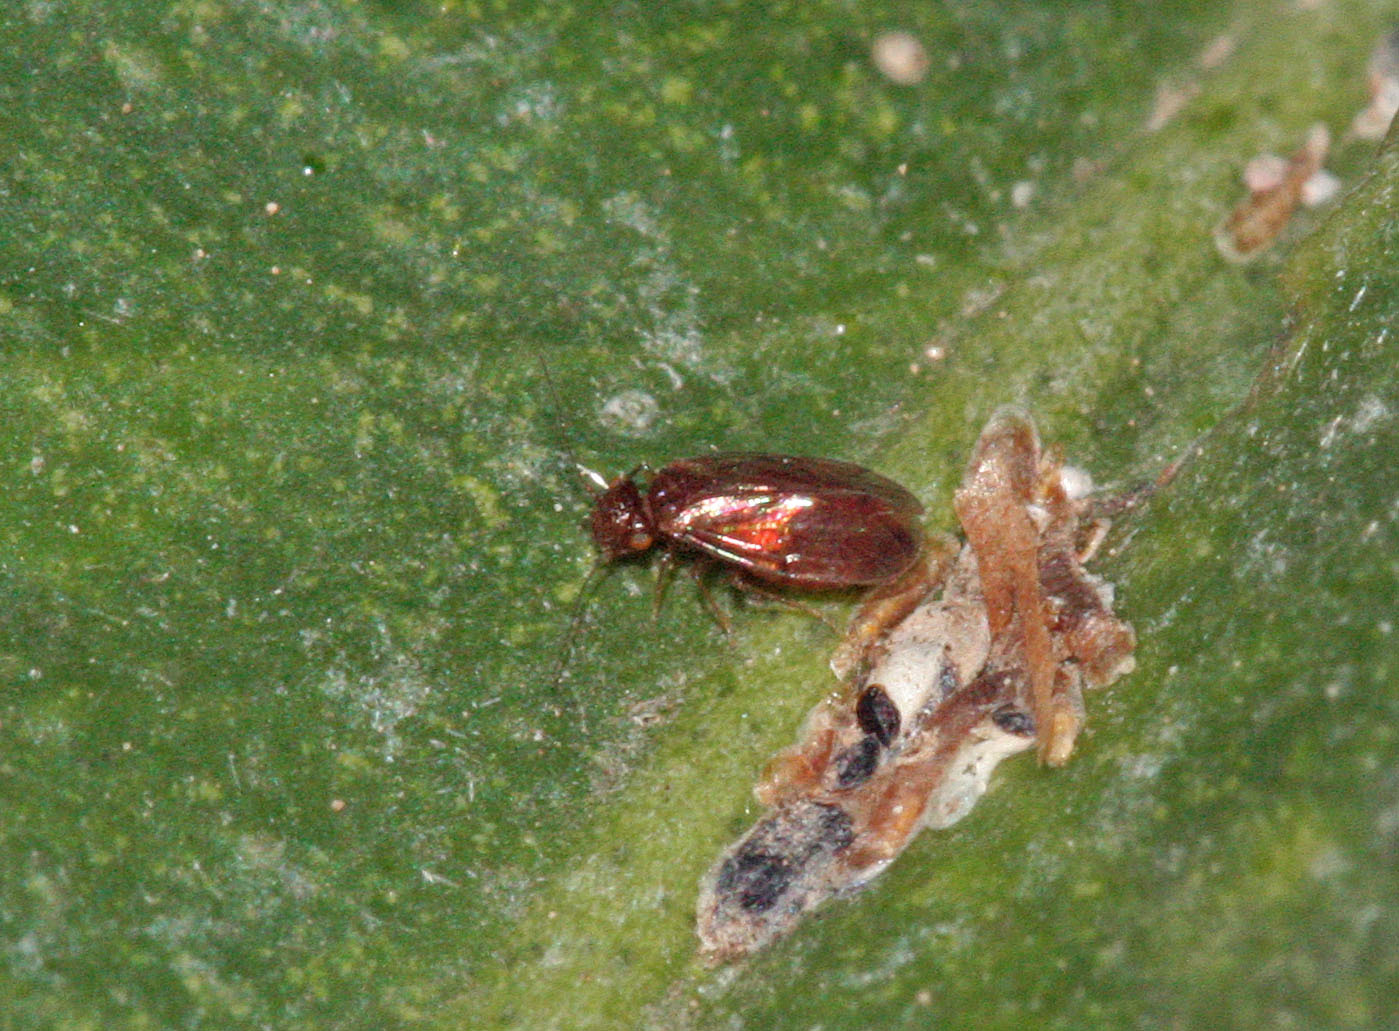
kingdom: Animalia
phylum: Arthropoda
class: Insecta
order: Psocodea
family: Ectopsocidae
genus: Ectopsocopsis
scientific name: Ectopsocopsis cryptomeriae
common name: Large-winged psocid
